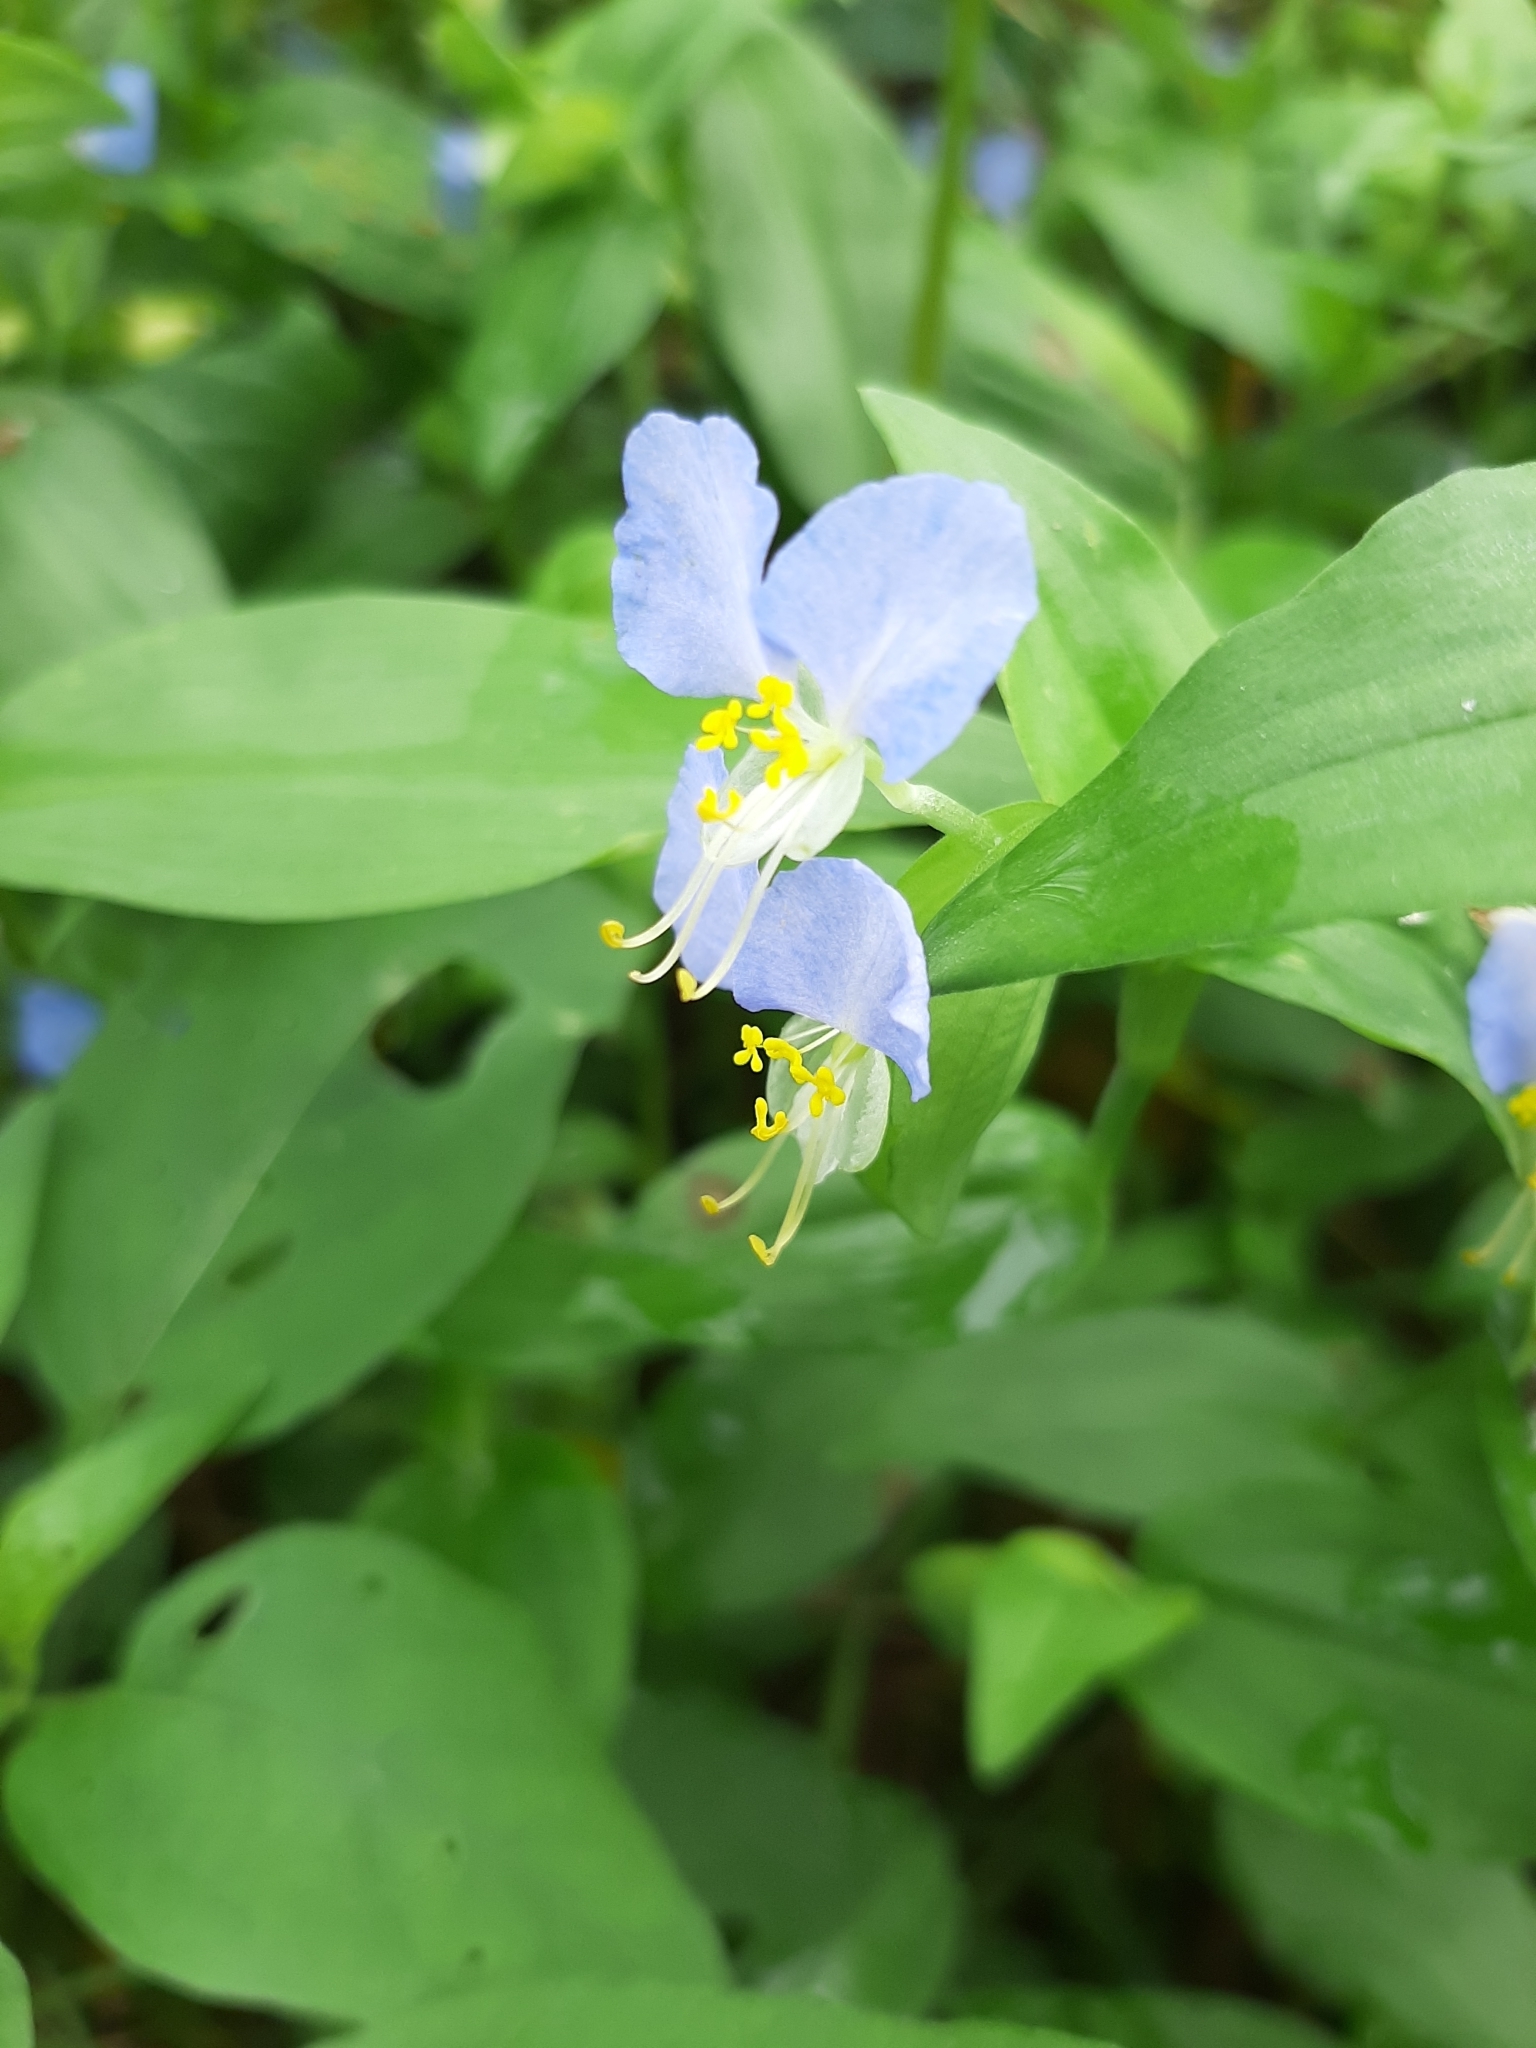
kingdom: Plantae
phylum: Tracheophyta
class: Liliopsida
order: Commelinales
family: Commelinaceae
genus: Commelina
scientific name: Commelina communis
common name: Asiatic dayflower
